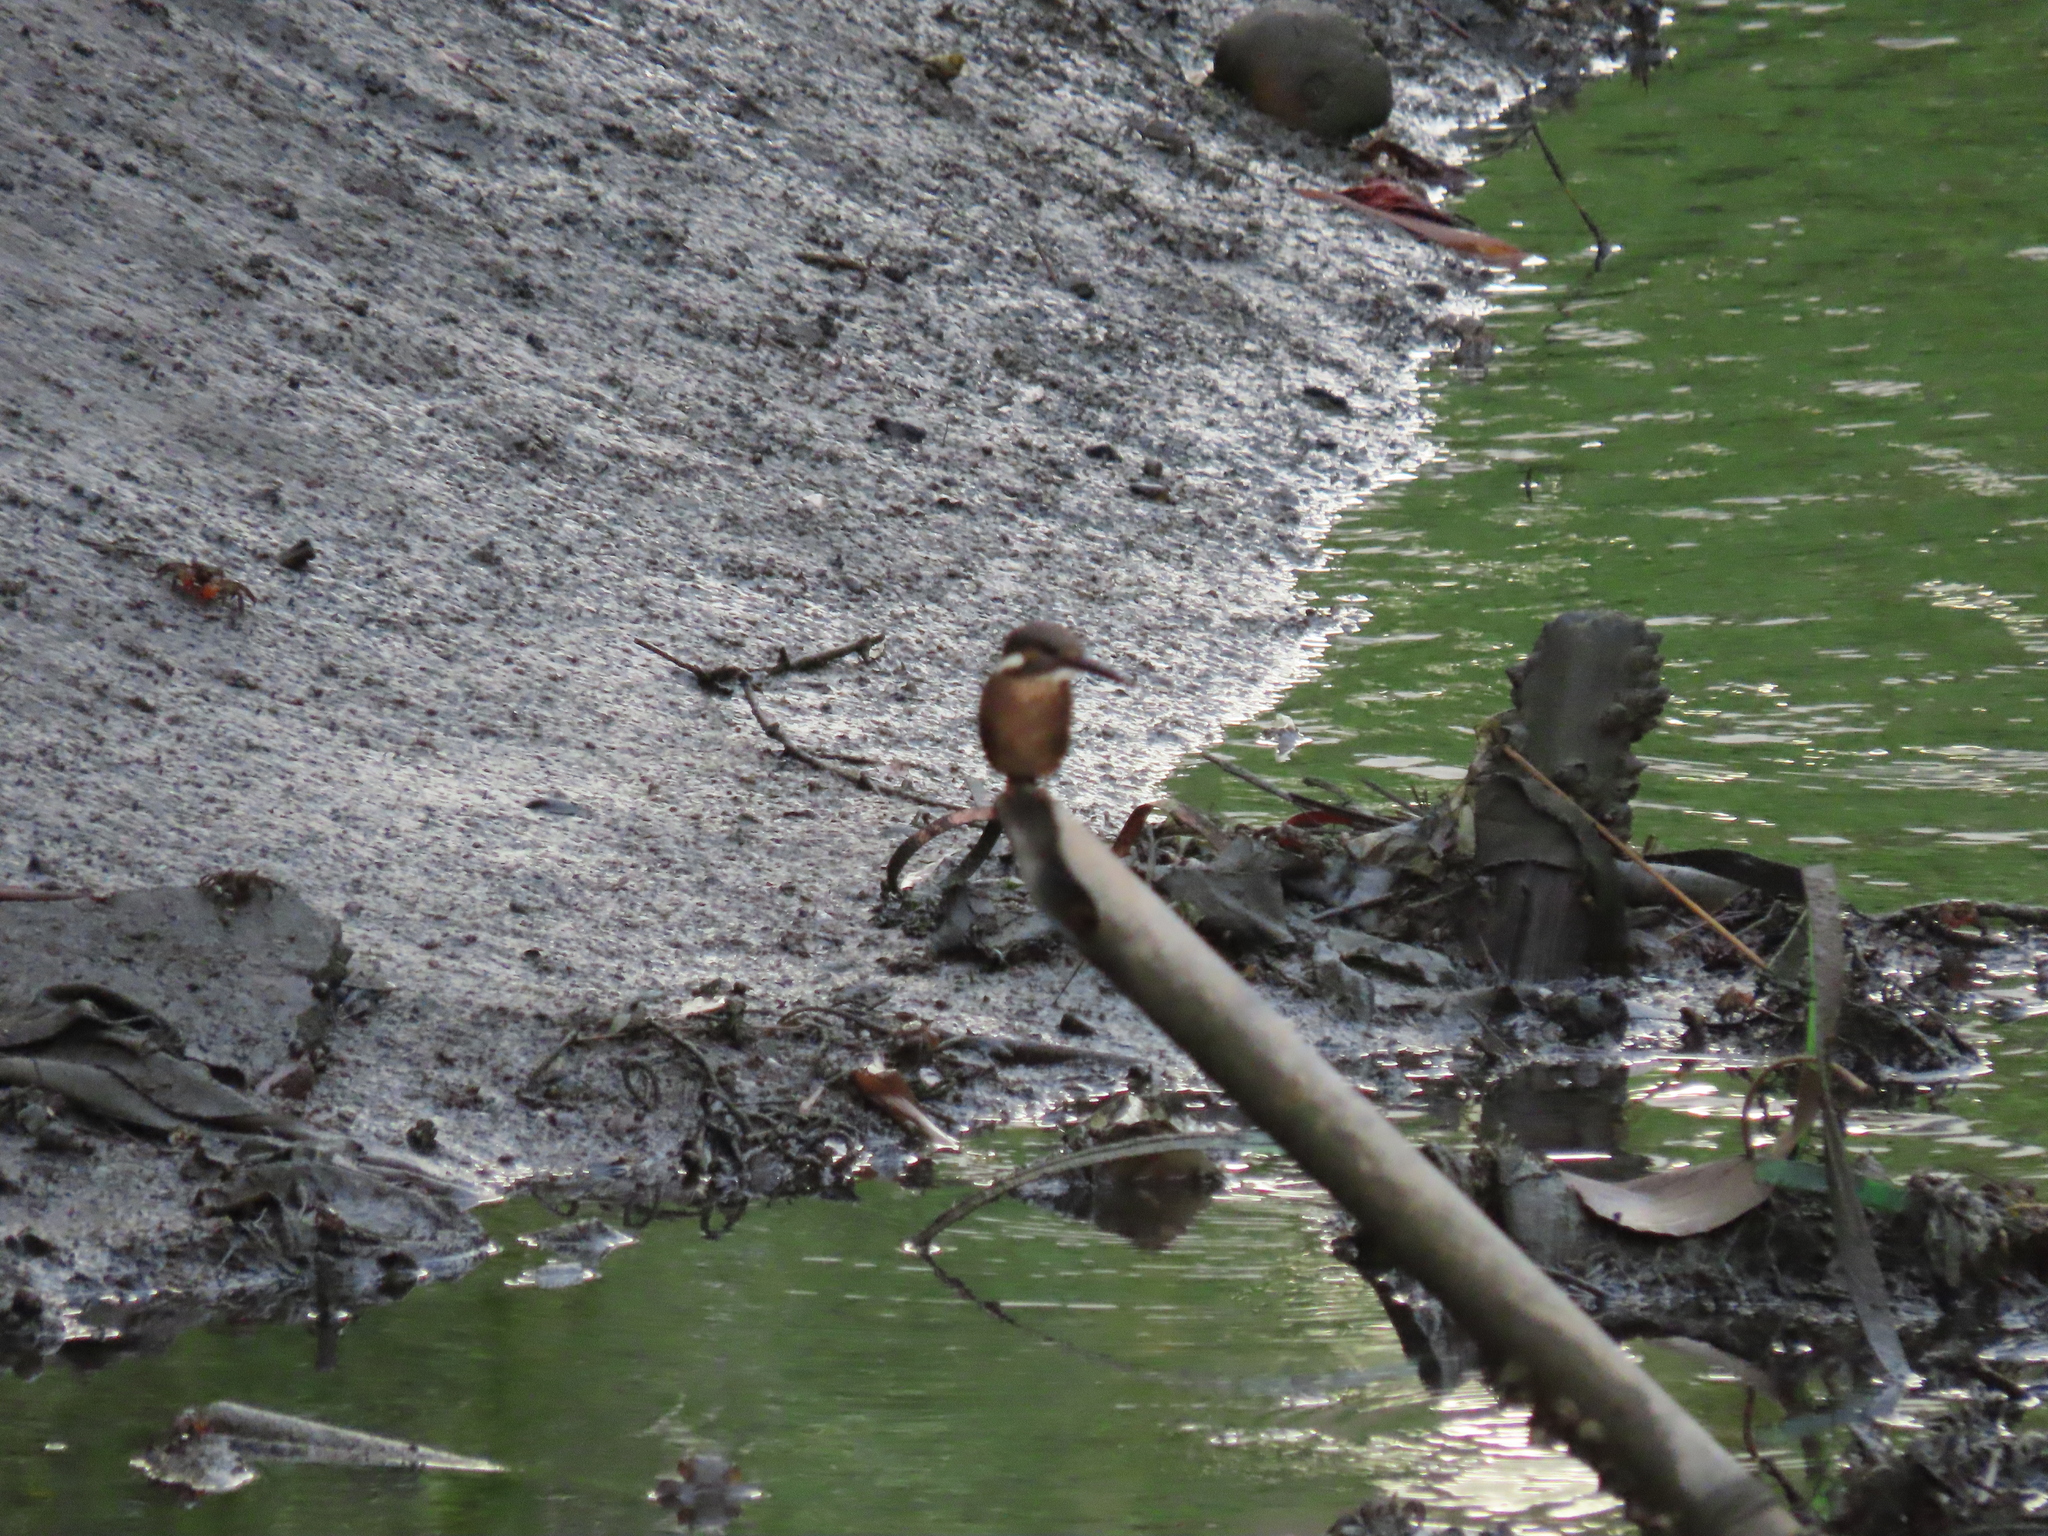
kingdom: Animalia
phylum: Chordata
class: Aves
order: Coraciiformes
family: Alcedinidae
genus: Alcedo
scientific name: Alcedo atthis
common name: Common kingfisher
